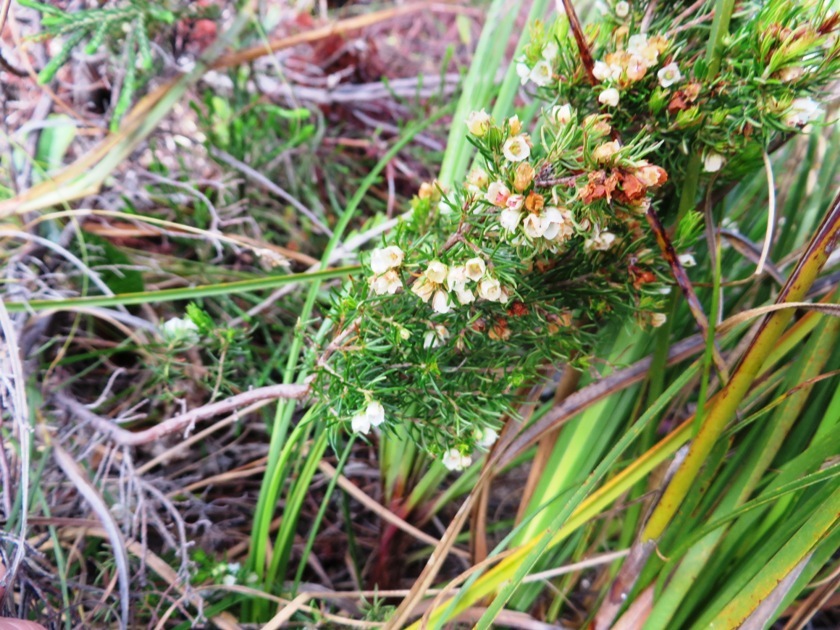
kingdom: Plantae
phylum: Tracheophyta
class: Magnoliopsida
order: Ericales
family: Ericaceae
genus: Erica
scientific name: Erica aemula
